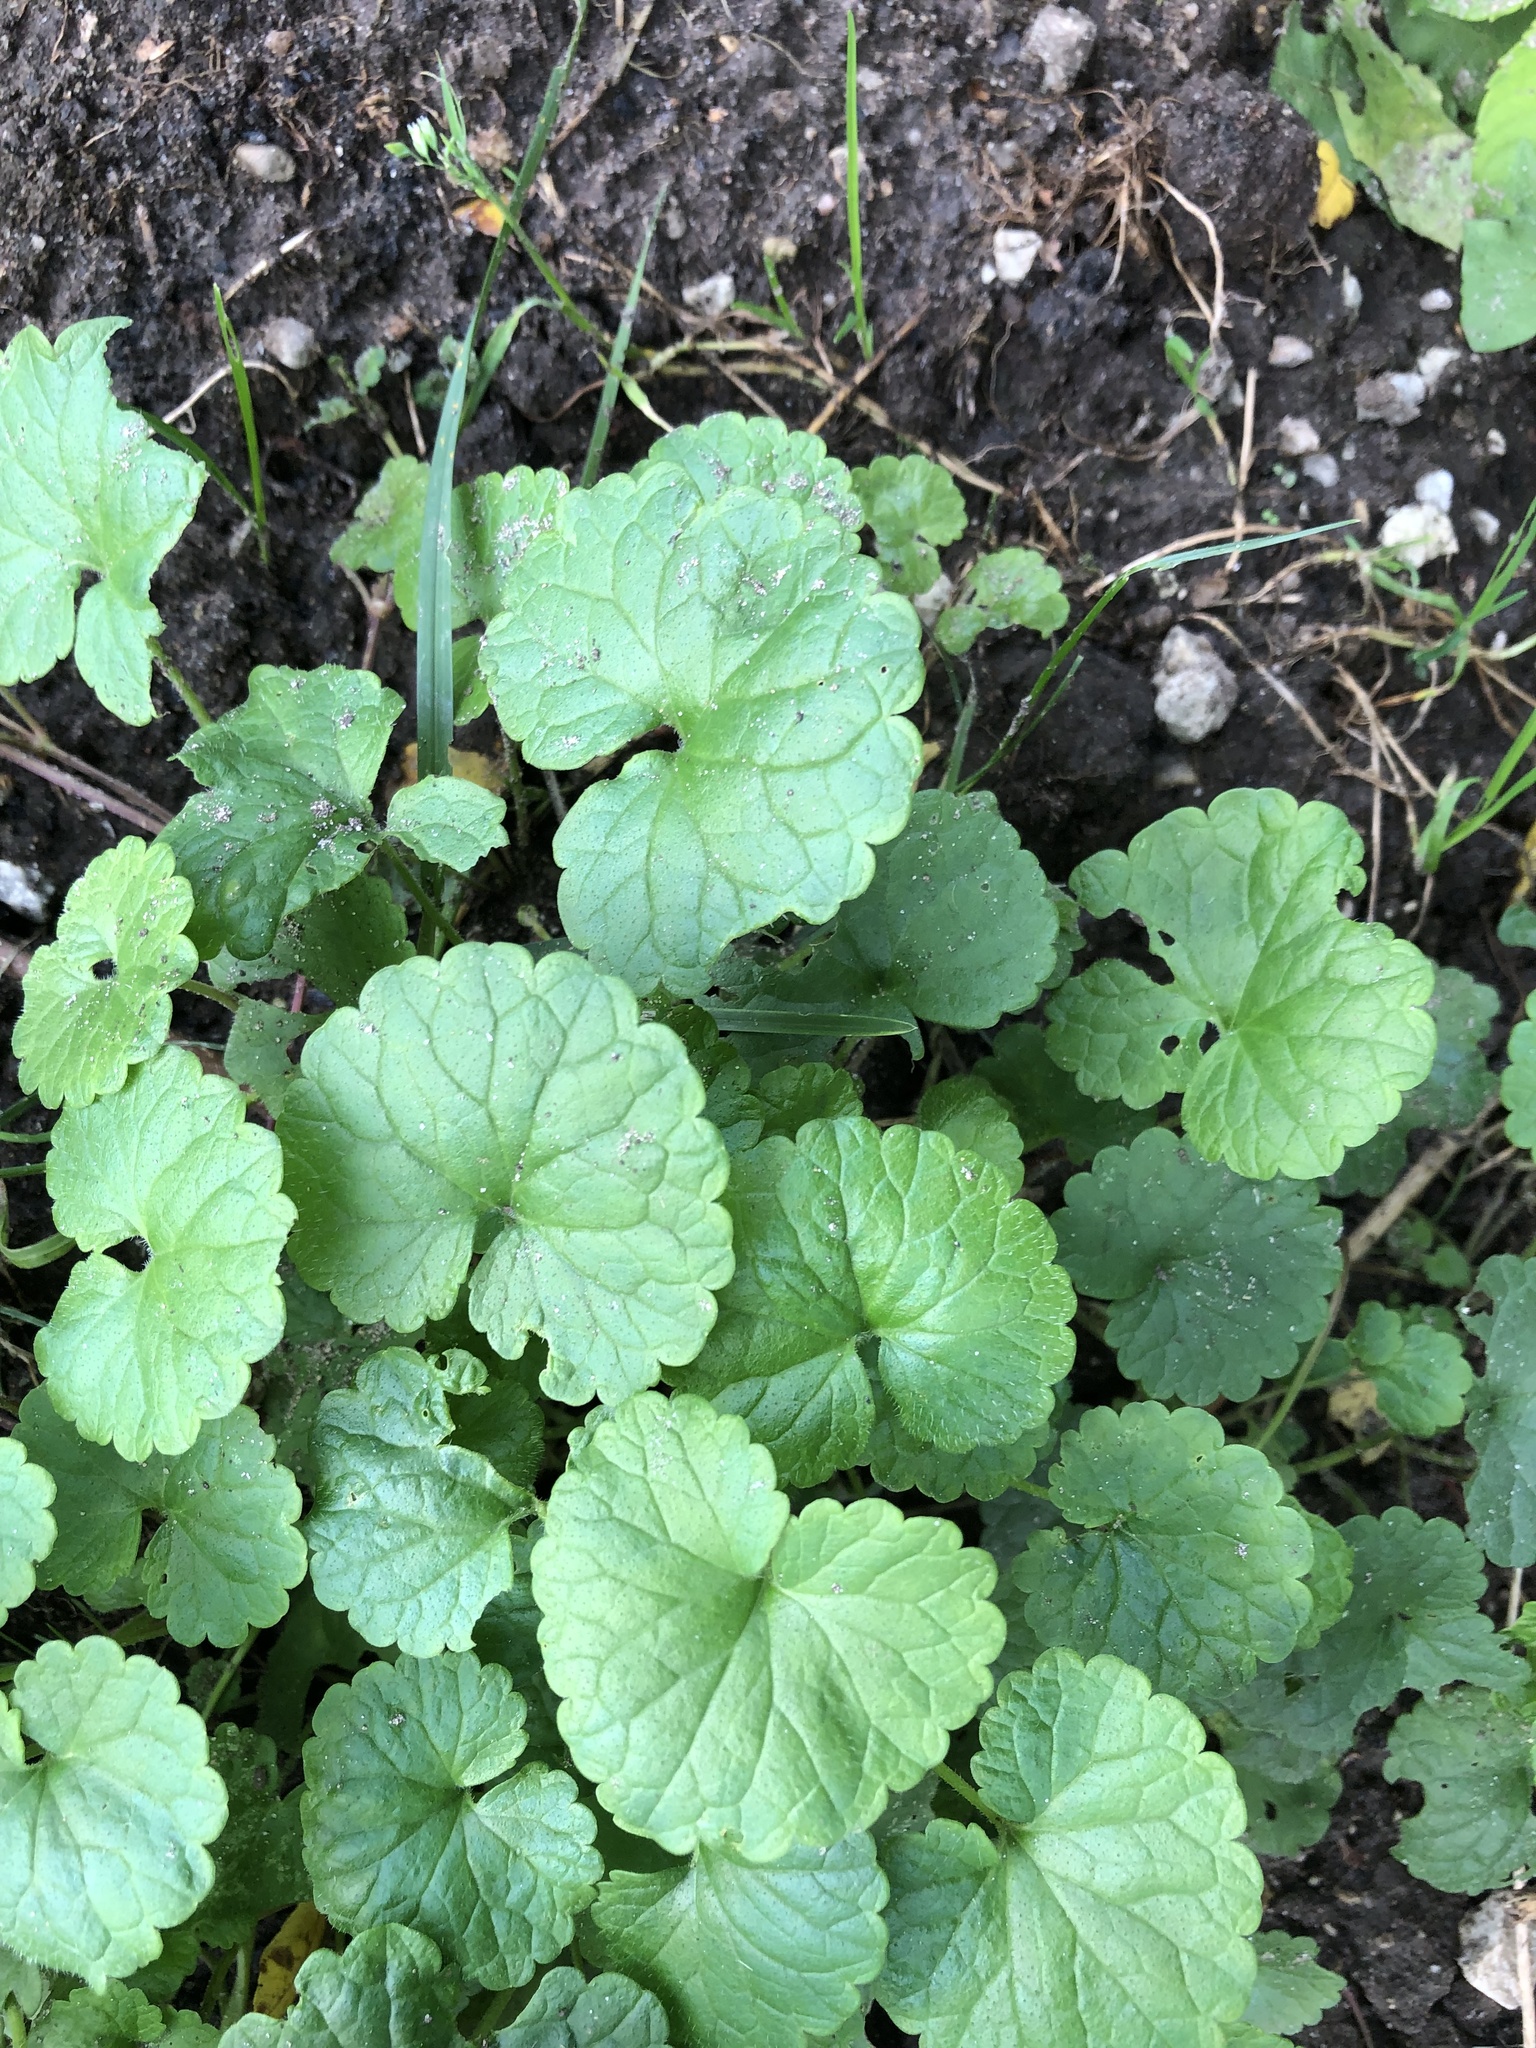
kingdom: Plantae
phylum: Tracheophyta
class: Magnoliopsida
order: Lamiales
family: Lamiaceae
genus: Glechoma
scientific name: Glechoma hederacea
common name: Ground ivy
